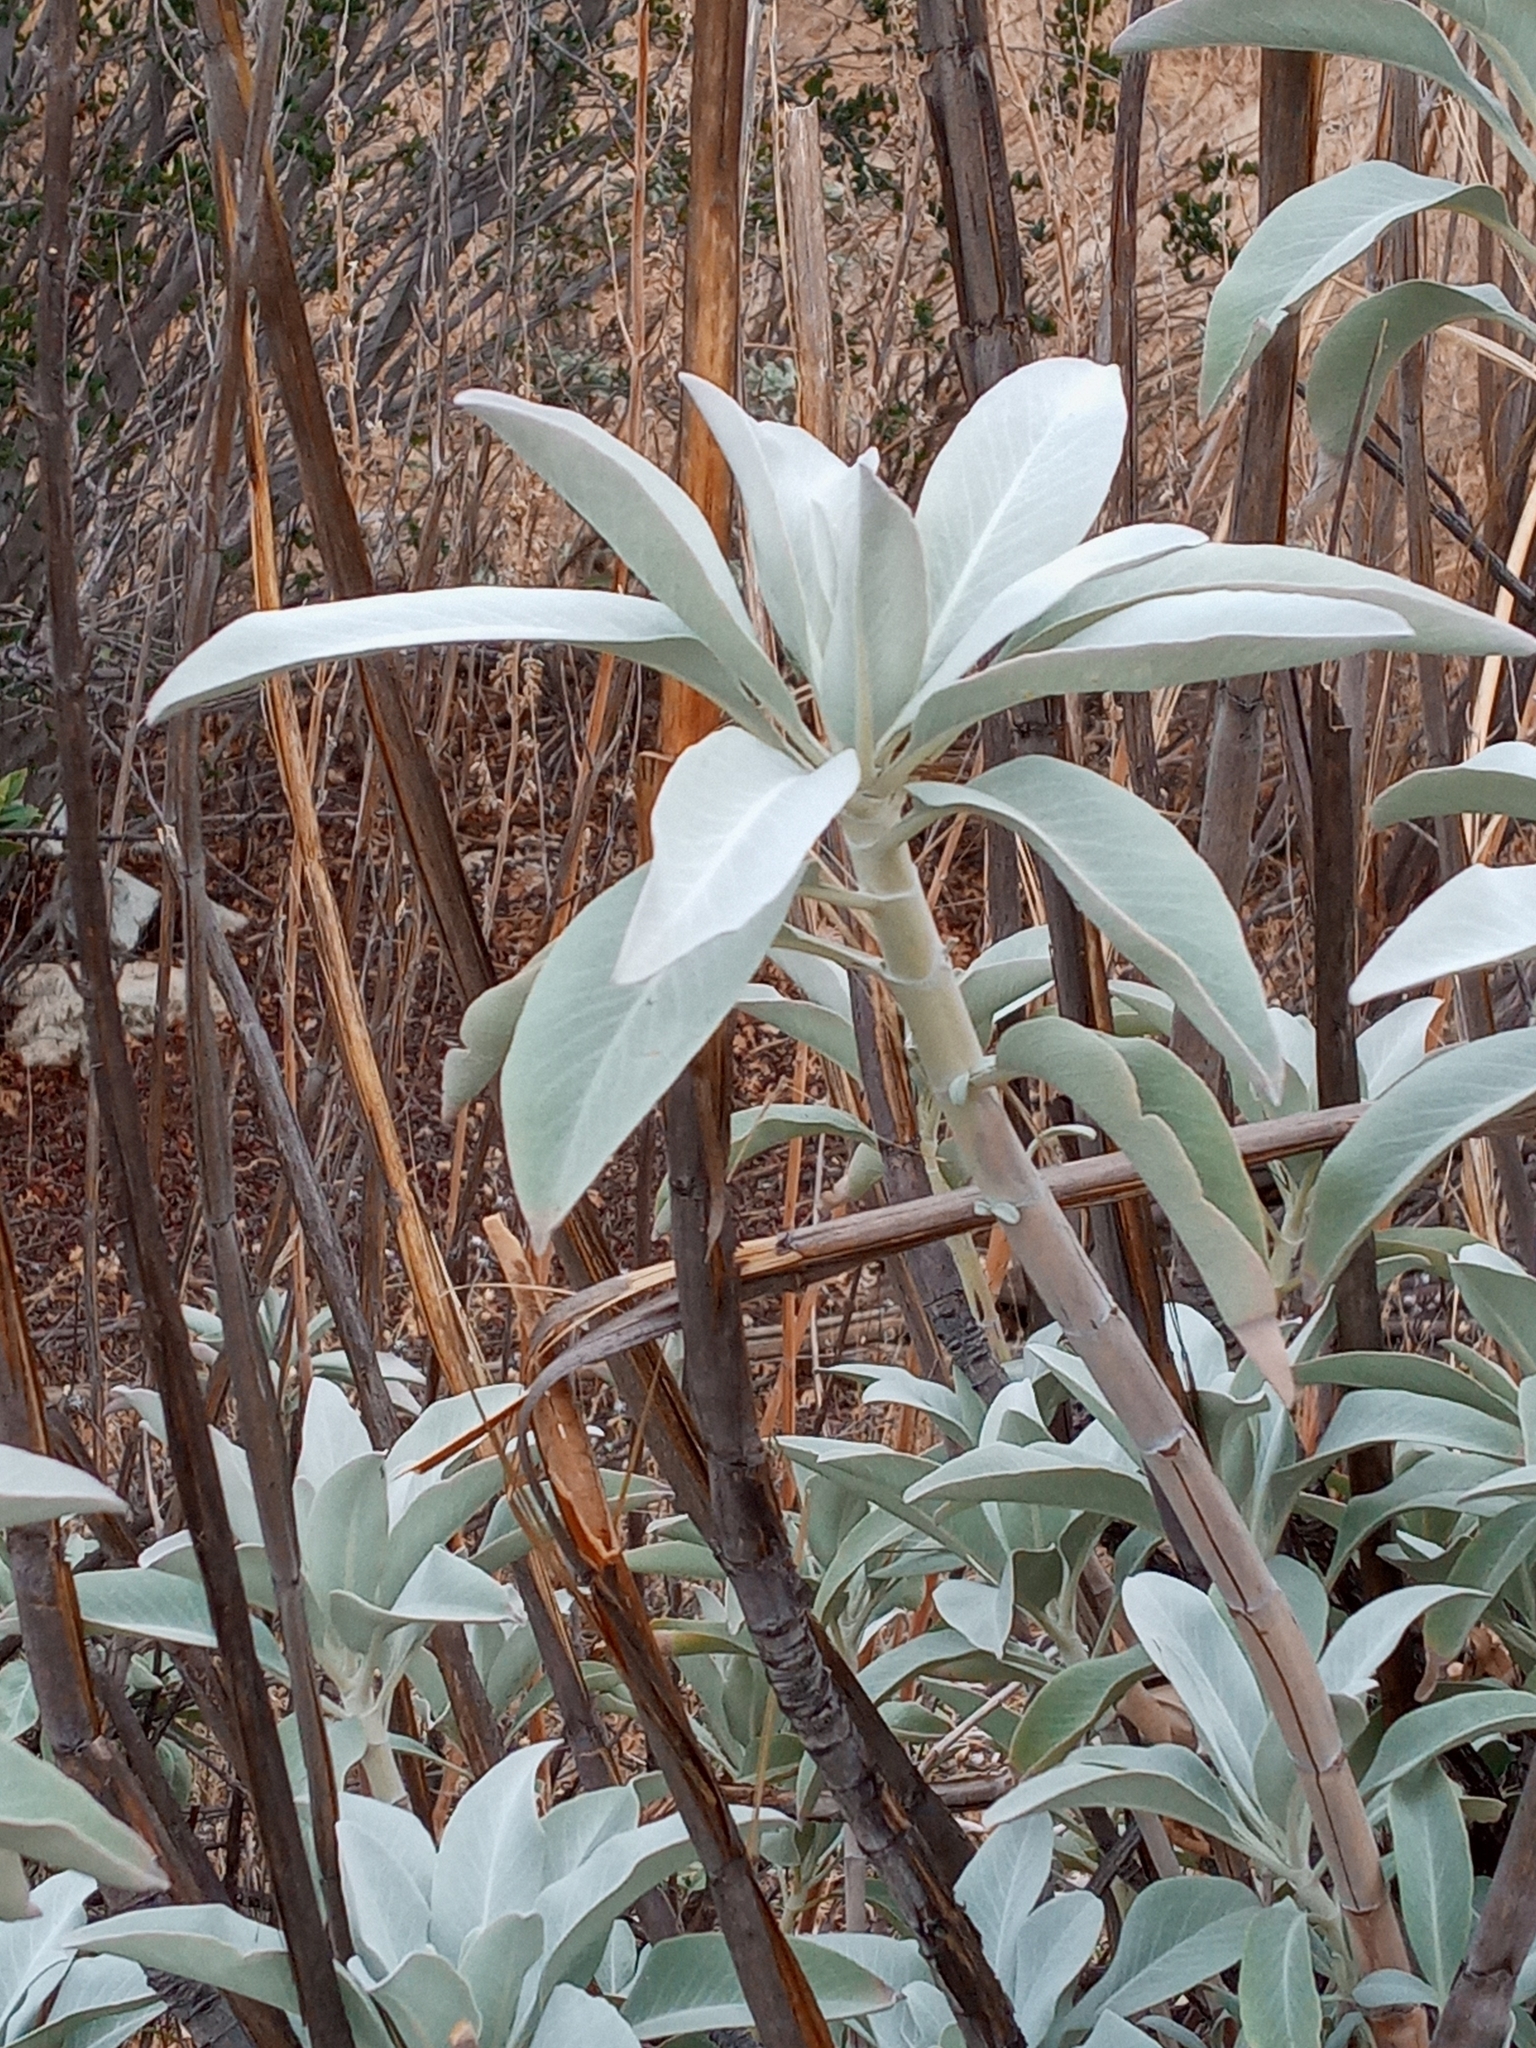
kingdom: Plantae
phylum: Tracheophyta
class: Magnoliopsida
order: Lamiales
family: Lamiaceae
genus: Salvia
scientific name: Salvia apiana
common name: White sage
